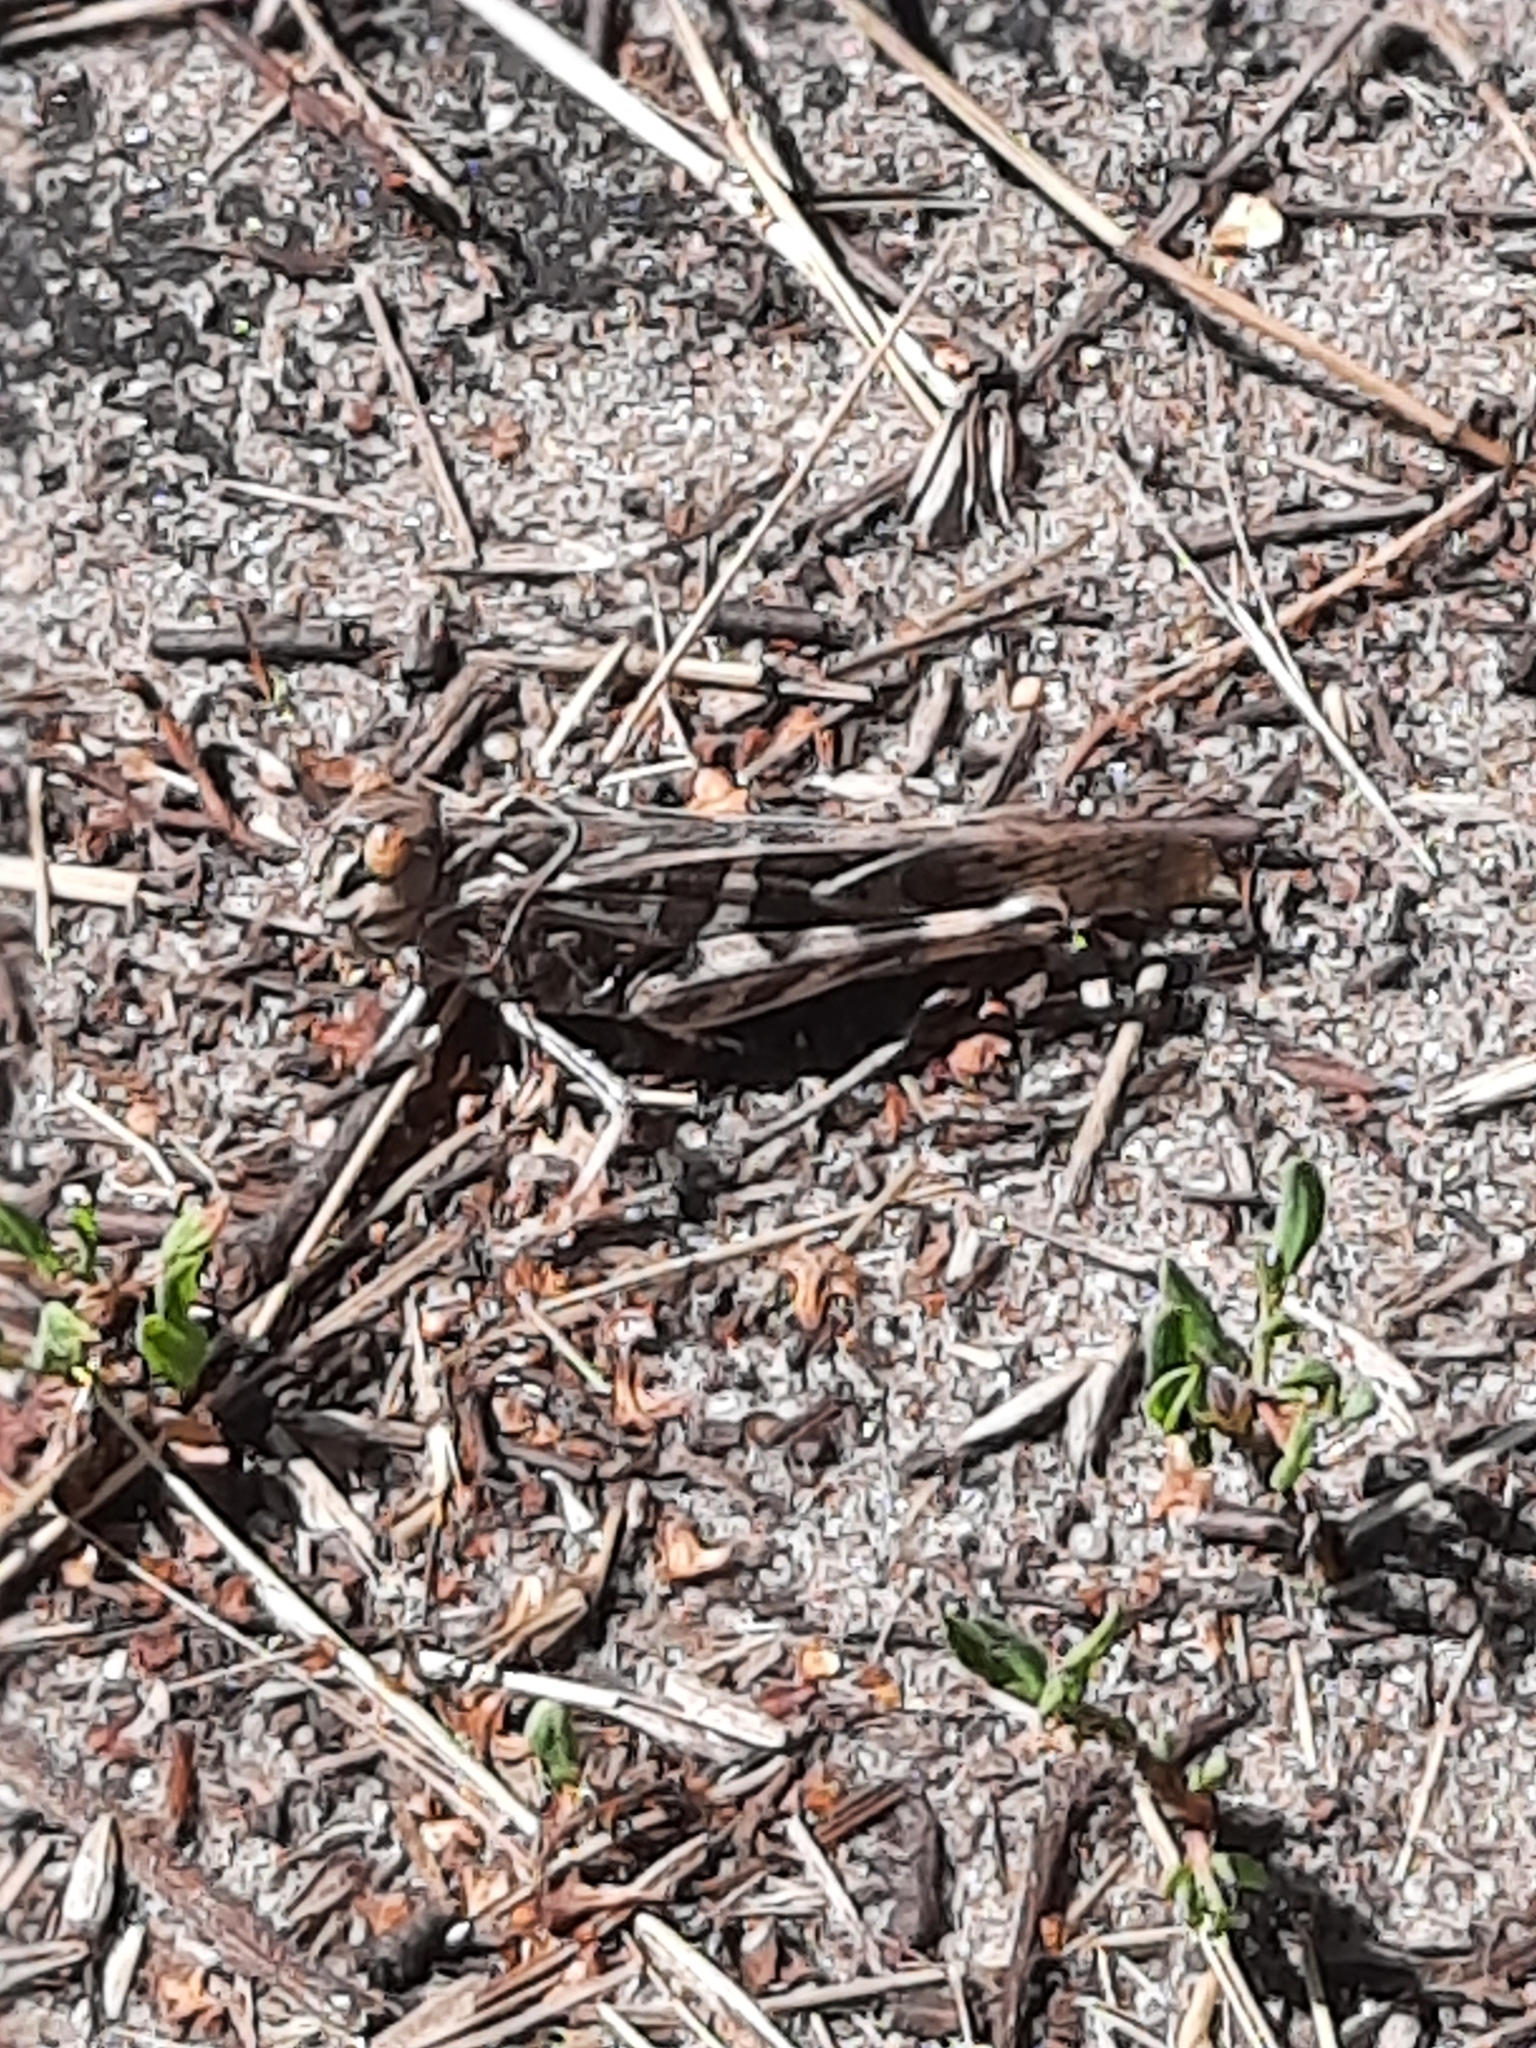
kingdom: Animalia
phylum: Arthropoda
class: Insecta
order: Orthoptera
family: Acrididae
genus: Oedaleus
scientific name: Oedaleus decorus
